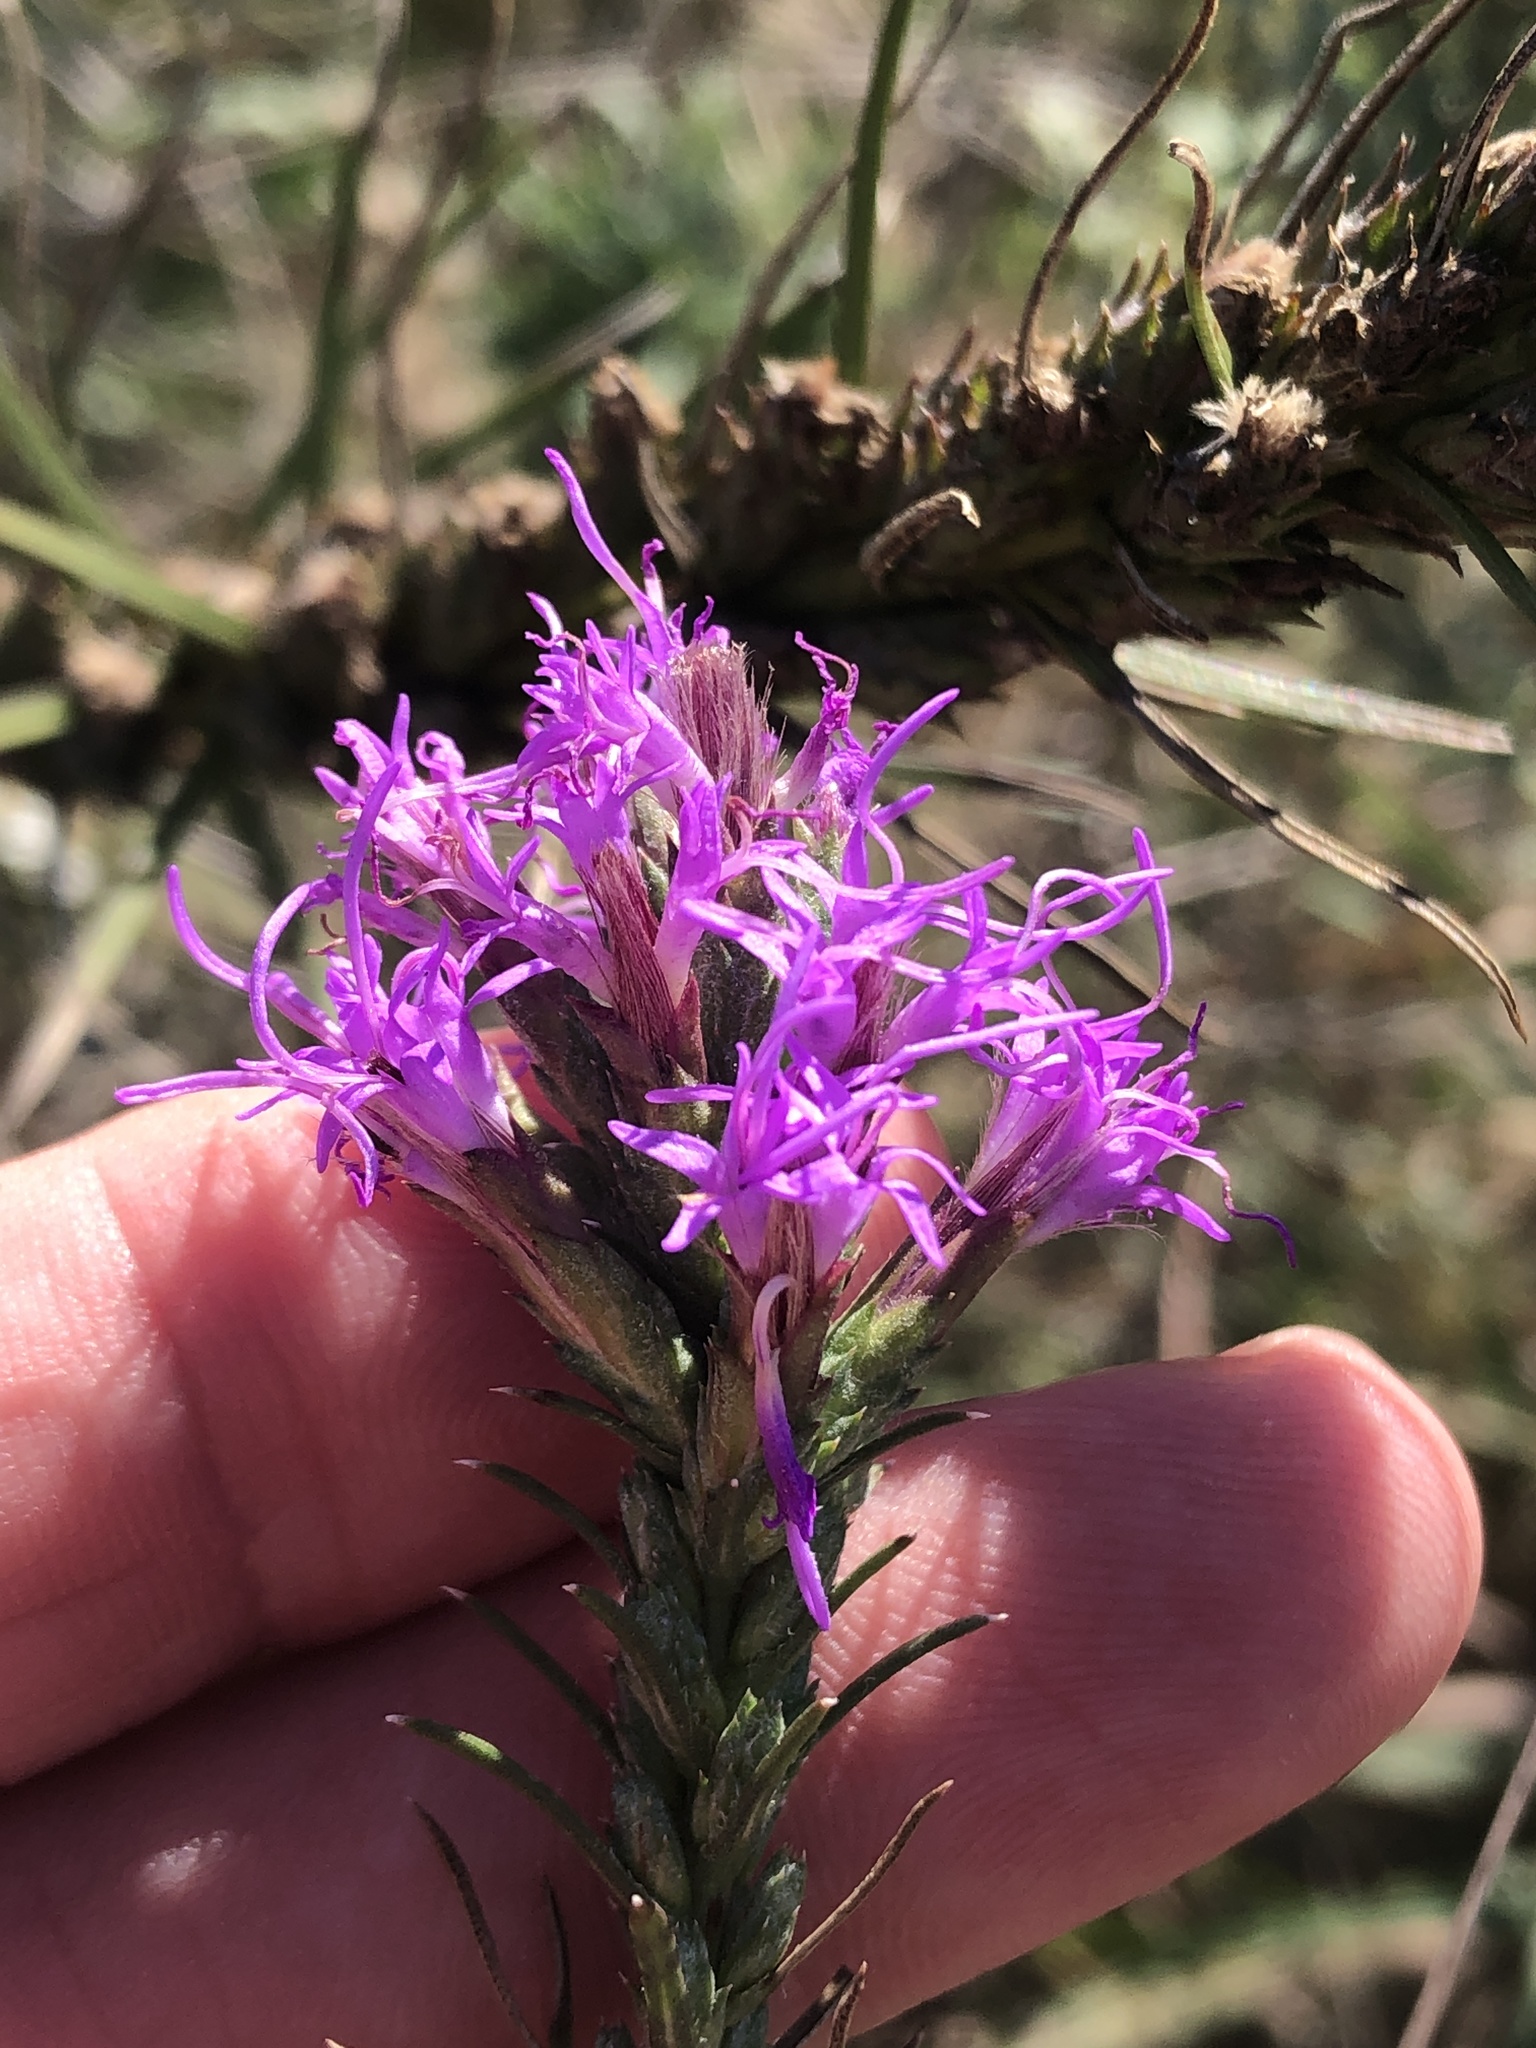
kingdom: Plantae
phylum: Tracheophyta
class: Magnoliopsida
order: Asterales
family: Asteraceae
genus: Liatris
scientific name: Liatris punctata
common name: Dotted gayfeather
